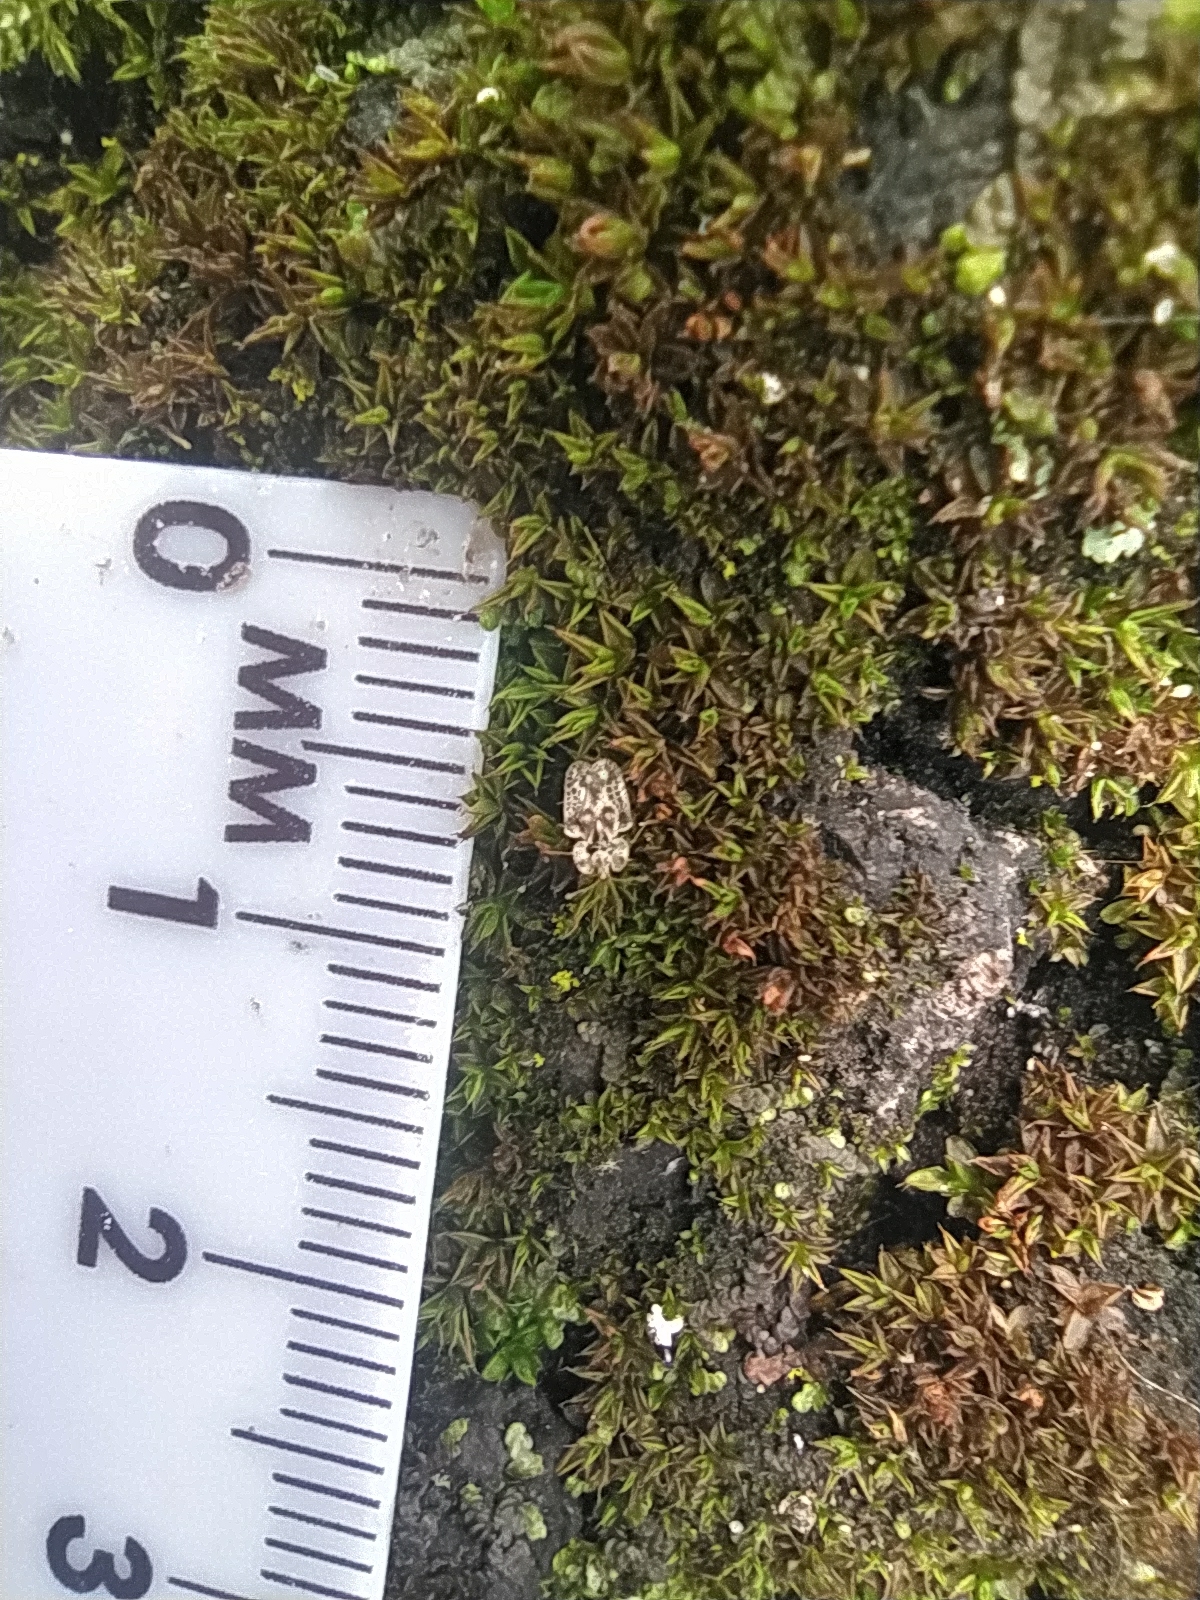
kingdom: Animalia
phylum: Arthropoda
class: Insecta
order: Hemiptera
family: Tingidae
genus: Corythucha
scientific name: Corythucha arcuata
